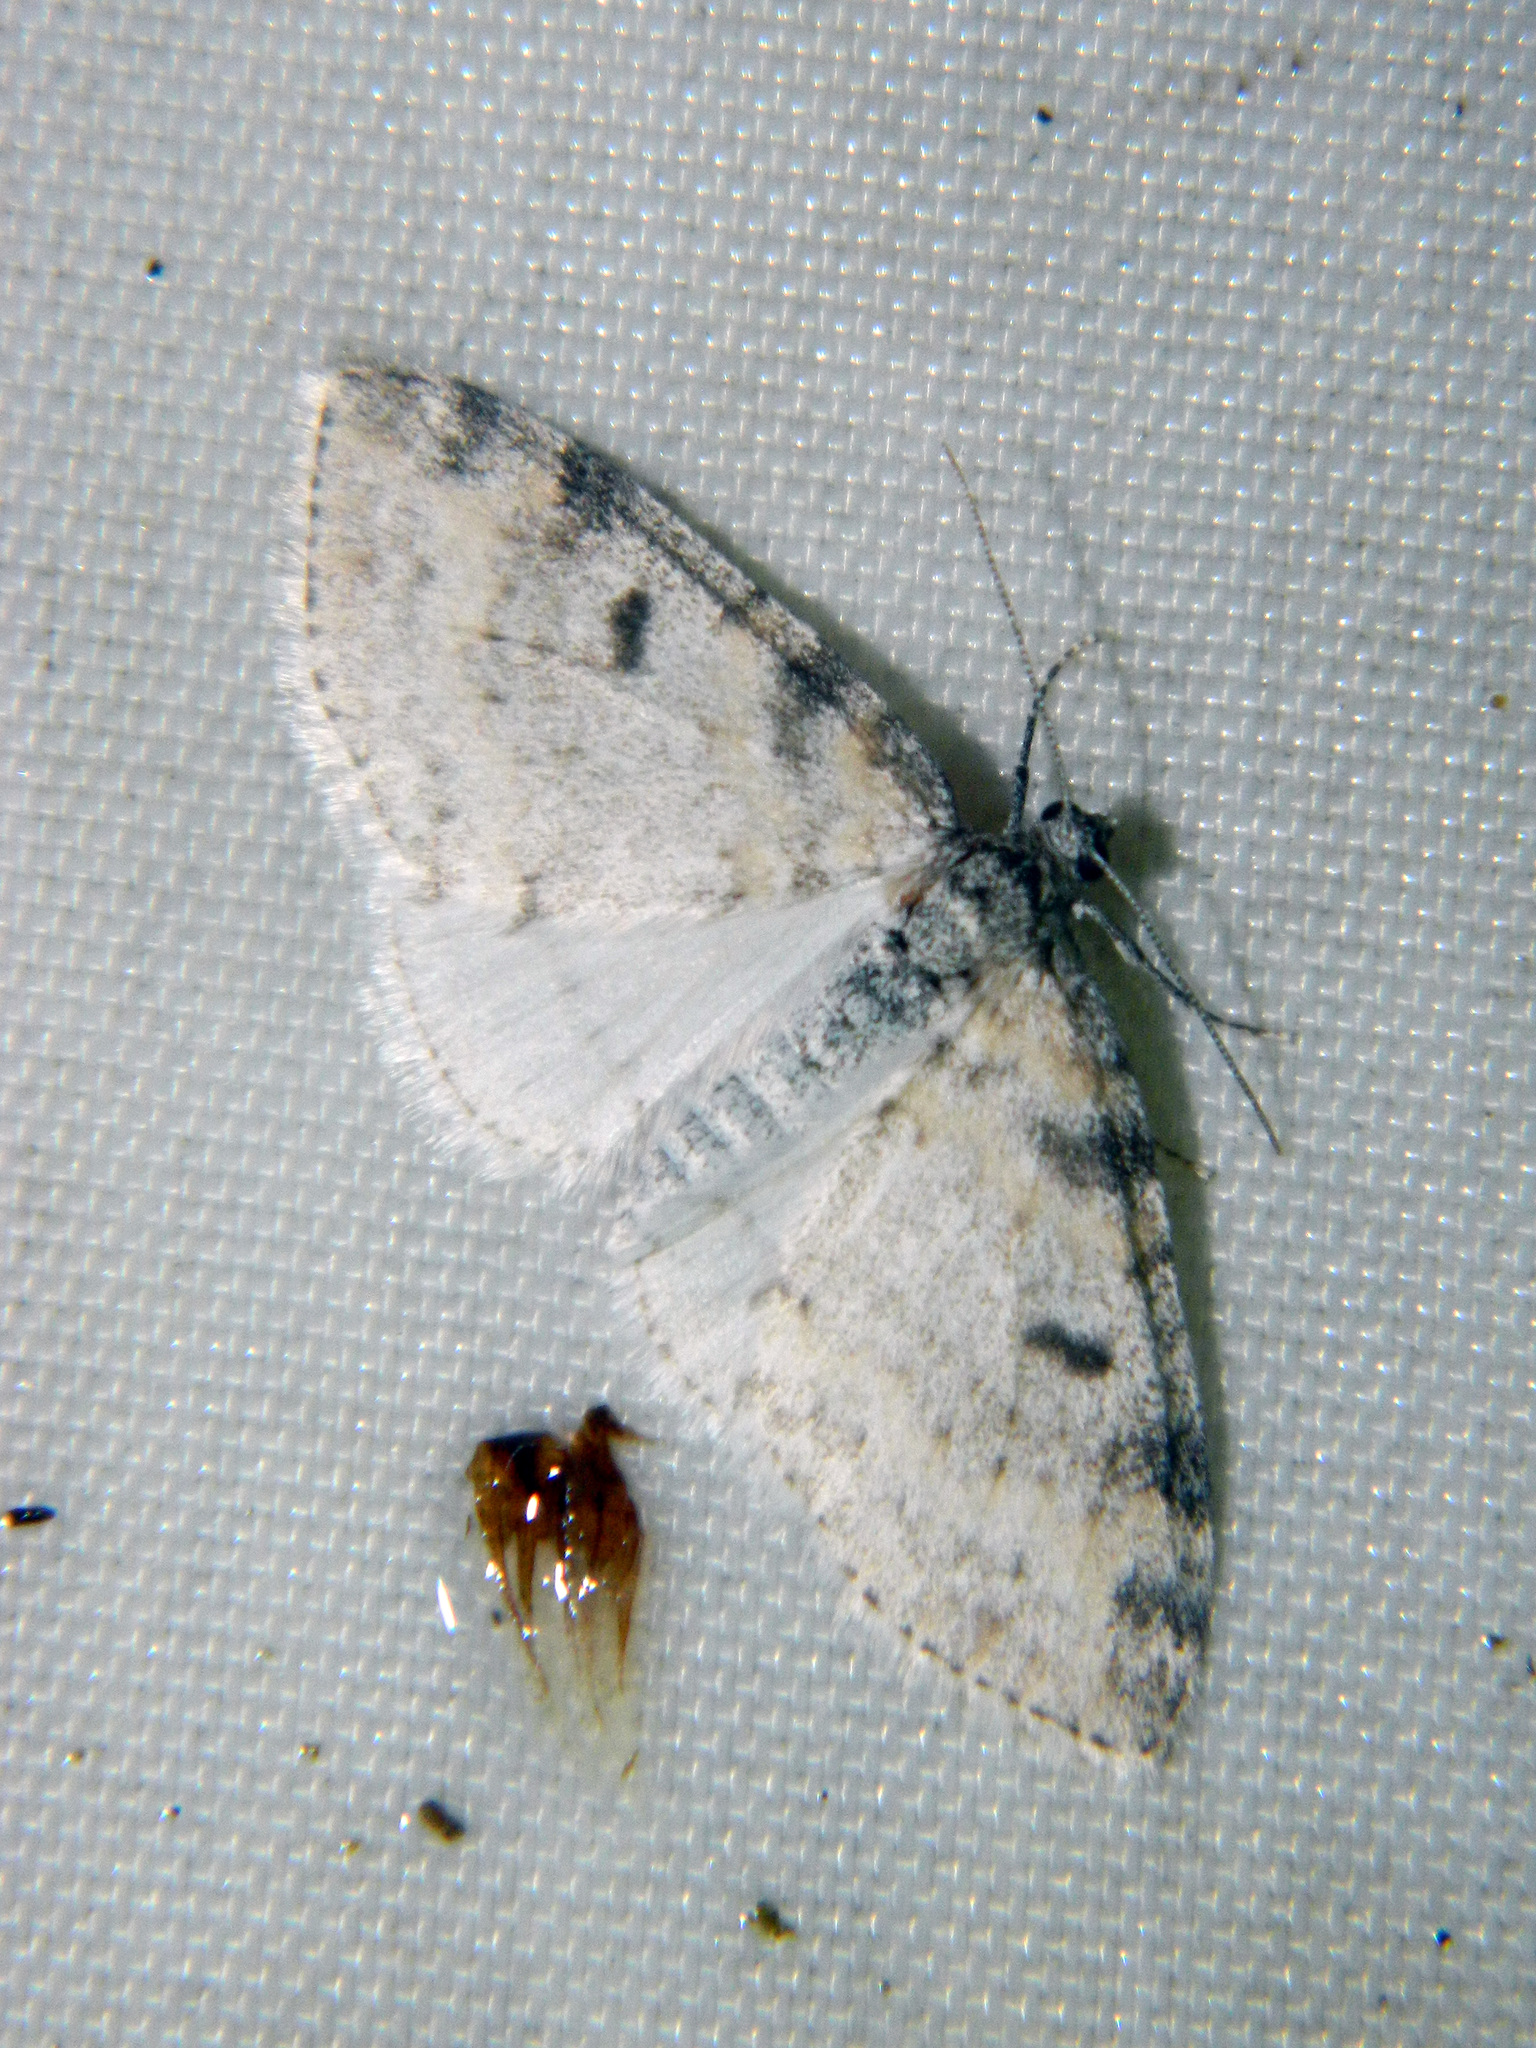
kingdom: Animalia
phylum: Arthropoda
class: Insecta
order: Lepidoptera
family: Geometridae
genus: Lobophora
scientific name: Lobophora nivigerata
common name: Powdered bigwing
